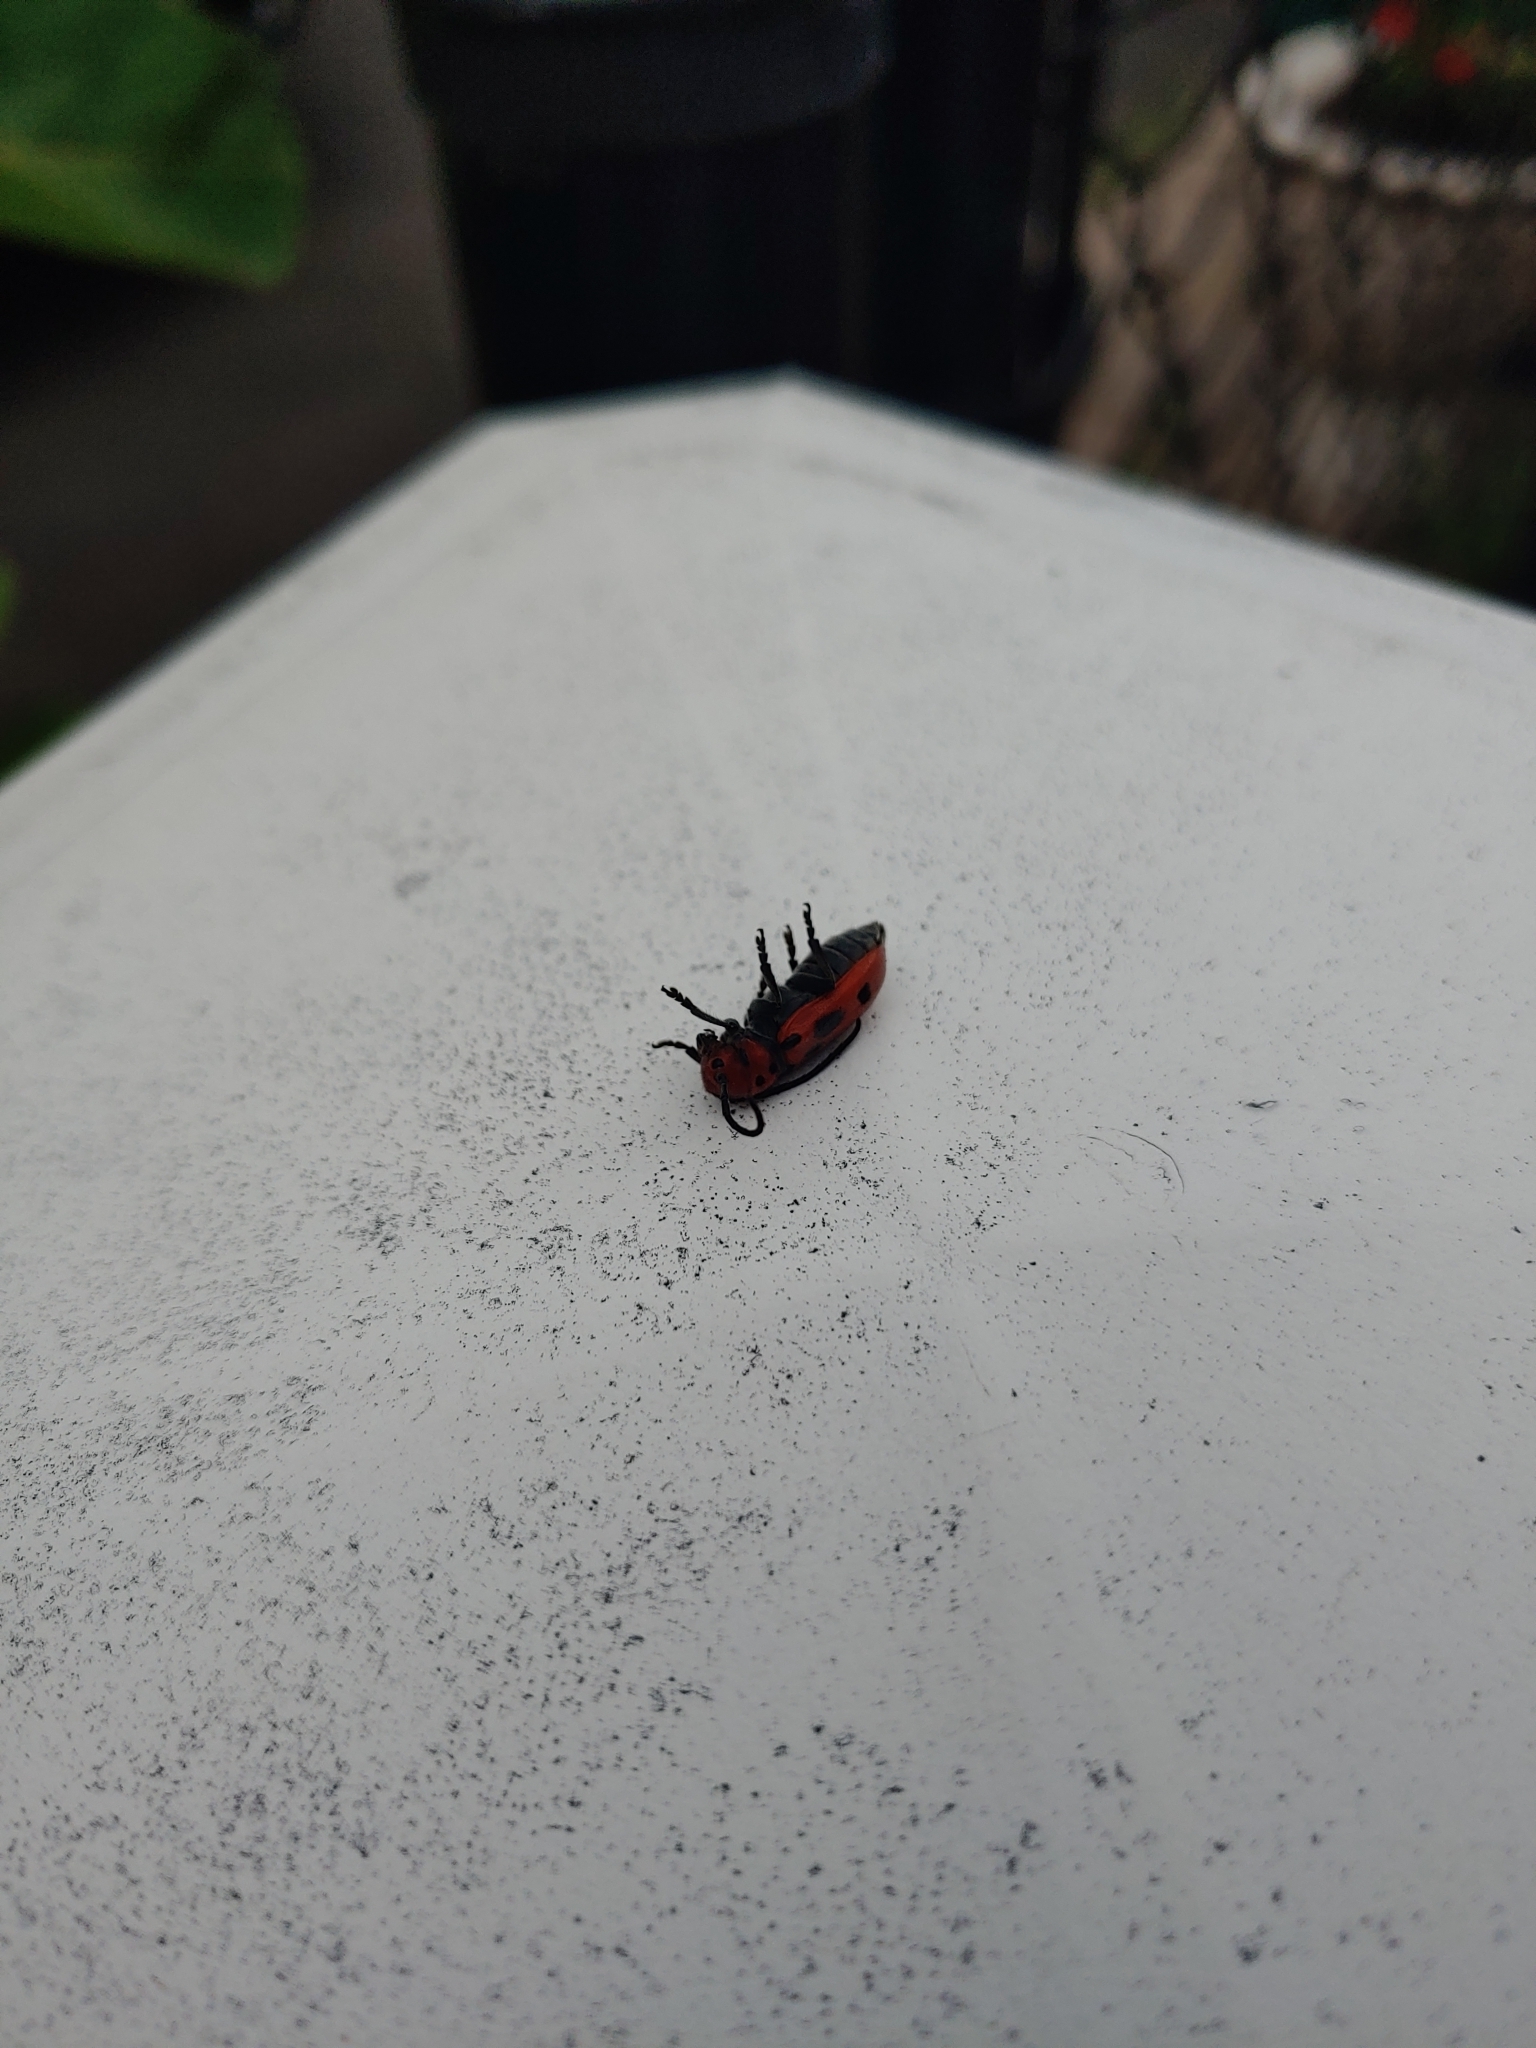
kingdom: Animalia
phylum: Arthropoda
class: Insecta
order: Coleoptera
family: Cerambycidae
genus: Tetraopes
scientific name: Tetraopes tetrophthalmus
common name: Red milkweed beetle
